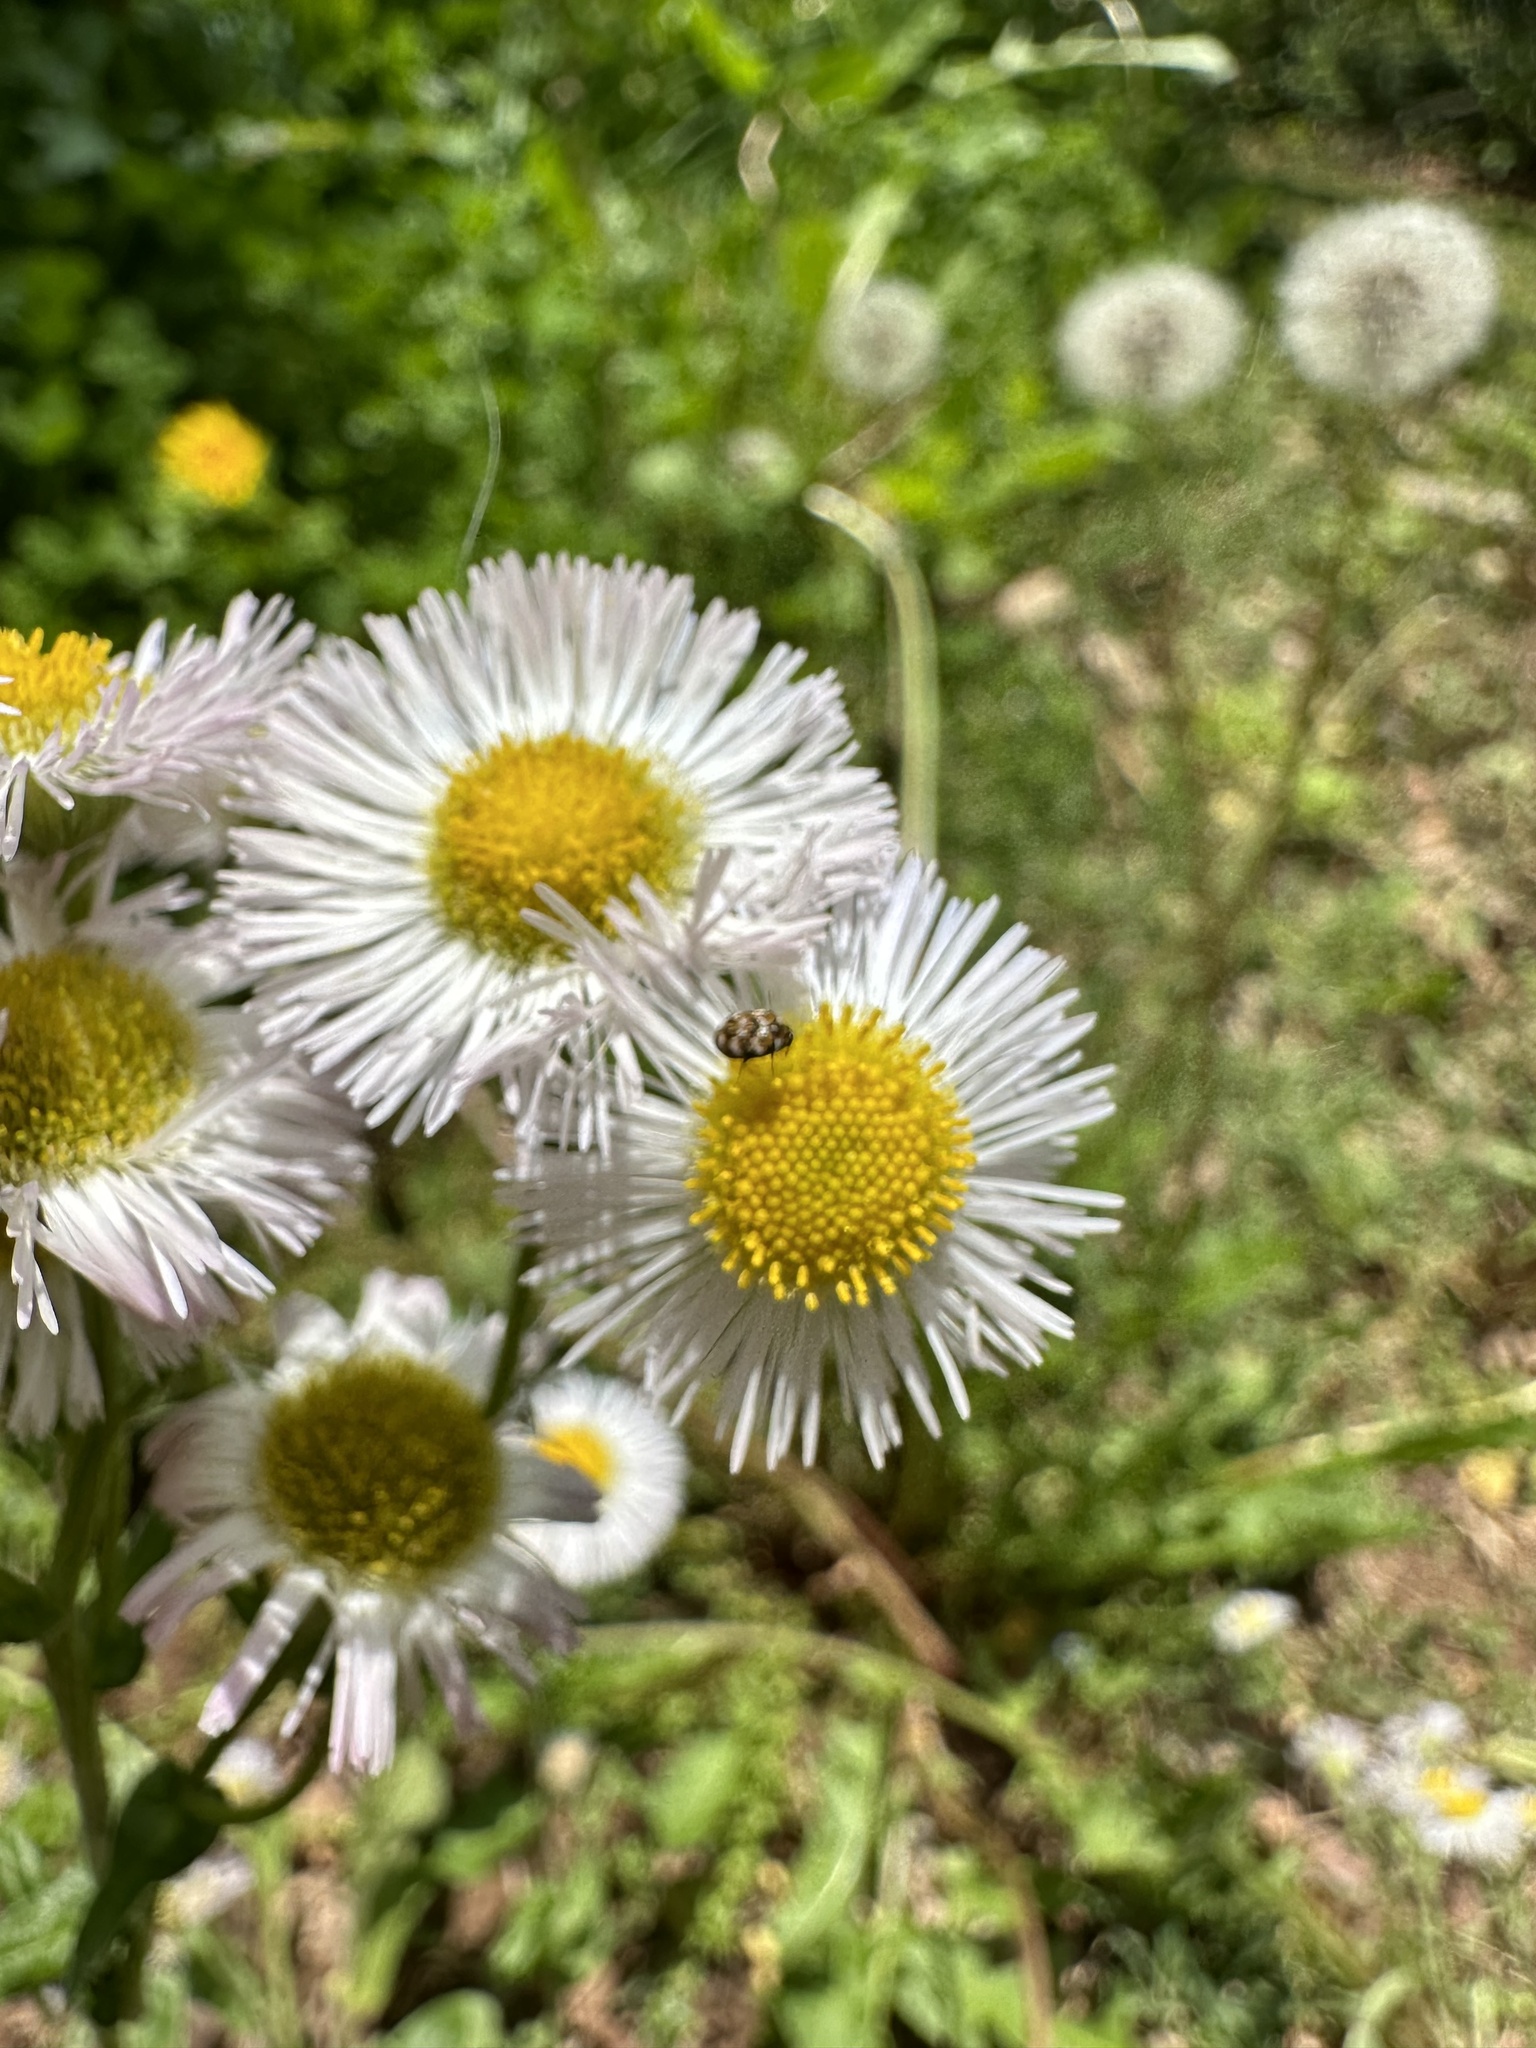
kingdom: Animalia
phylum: Arthropoda
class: Insecta
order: Coleoptera
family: Dermestidae
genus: Anthrenus
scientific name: Anthrenus verbasci
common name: Varied carpet beetle
